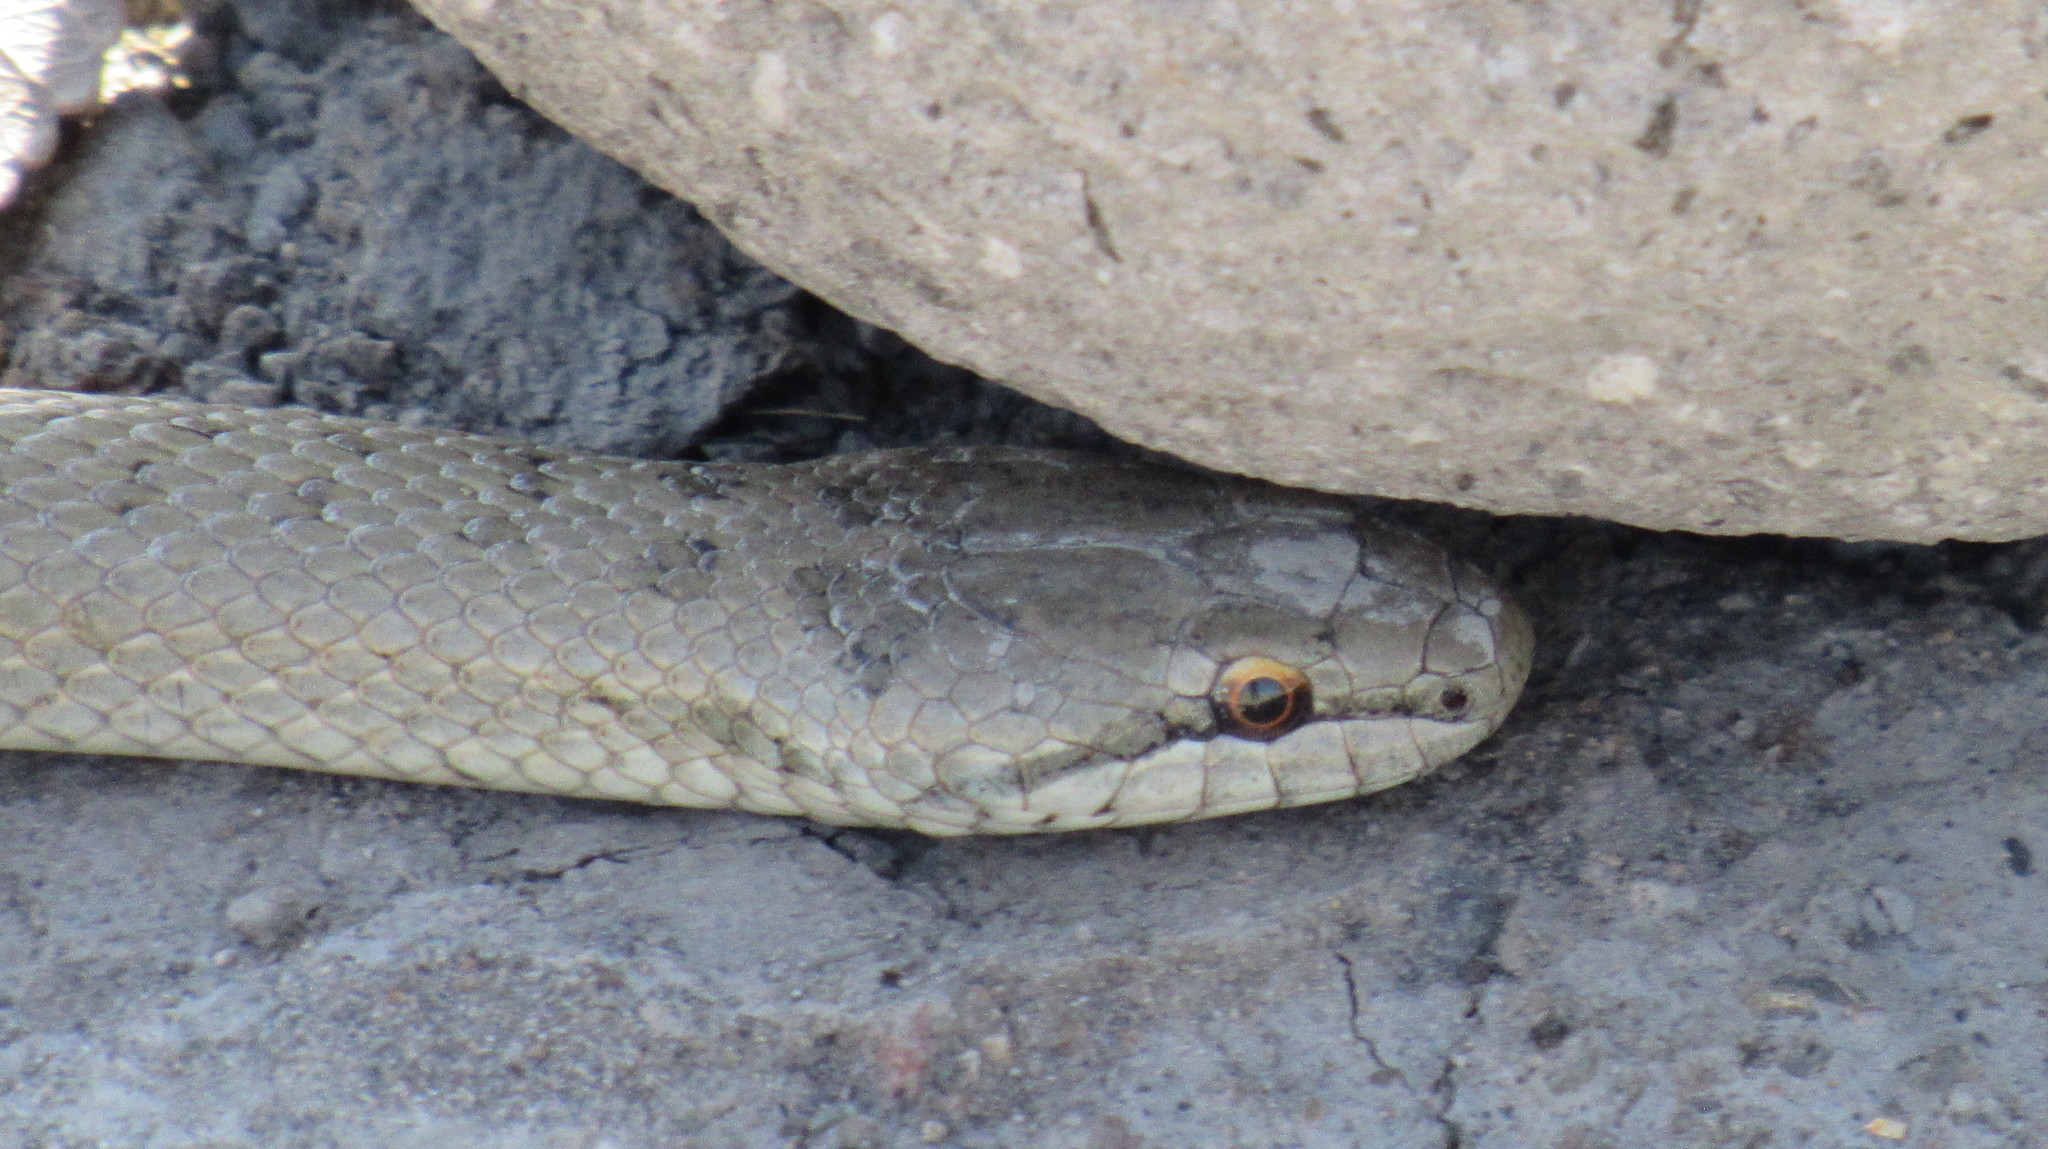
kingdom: Animalia
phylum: Chordata
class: Squamata
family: Colubridae
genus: Coronella
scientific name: Coronella austriaca
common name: Smooth snake
